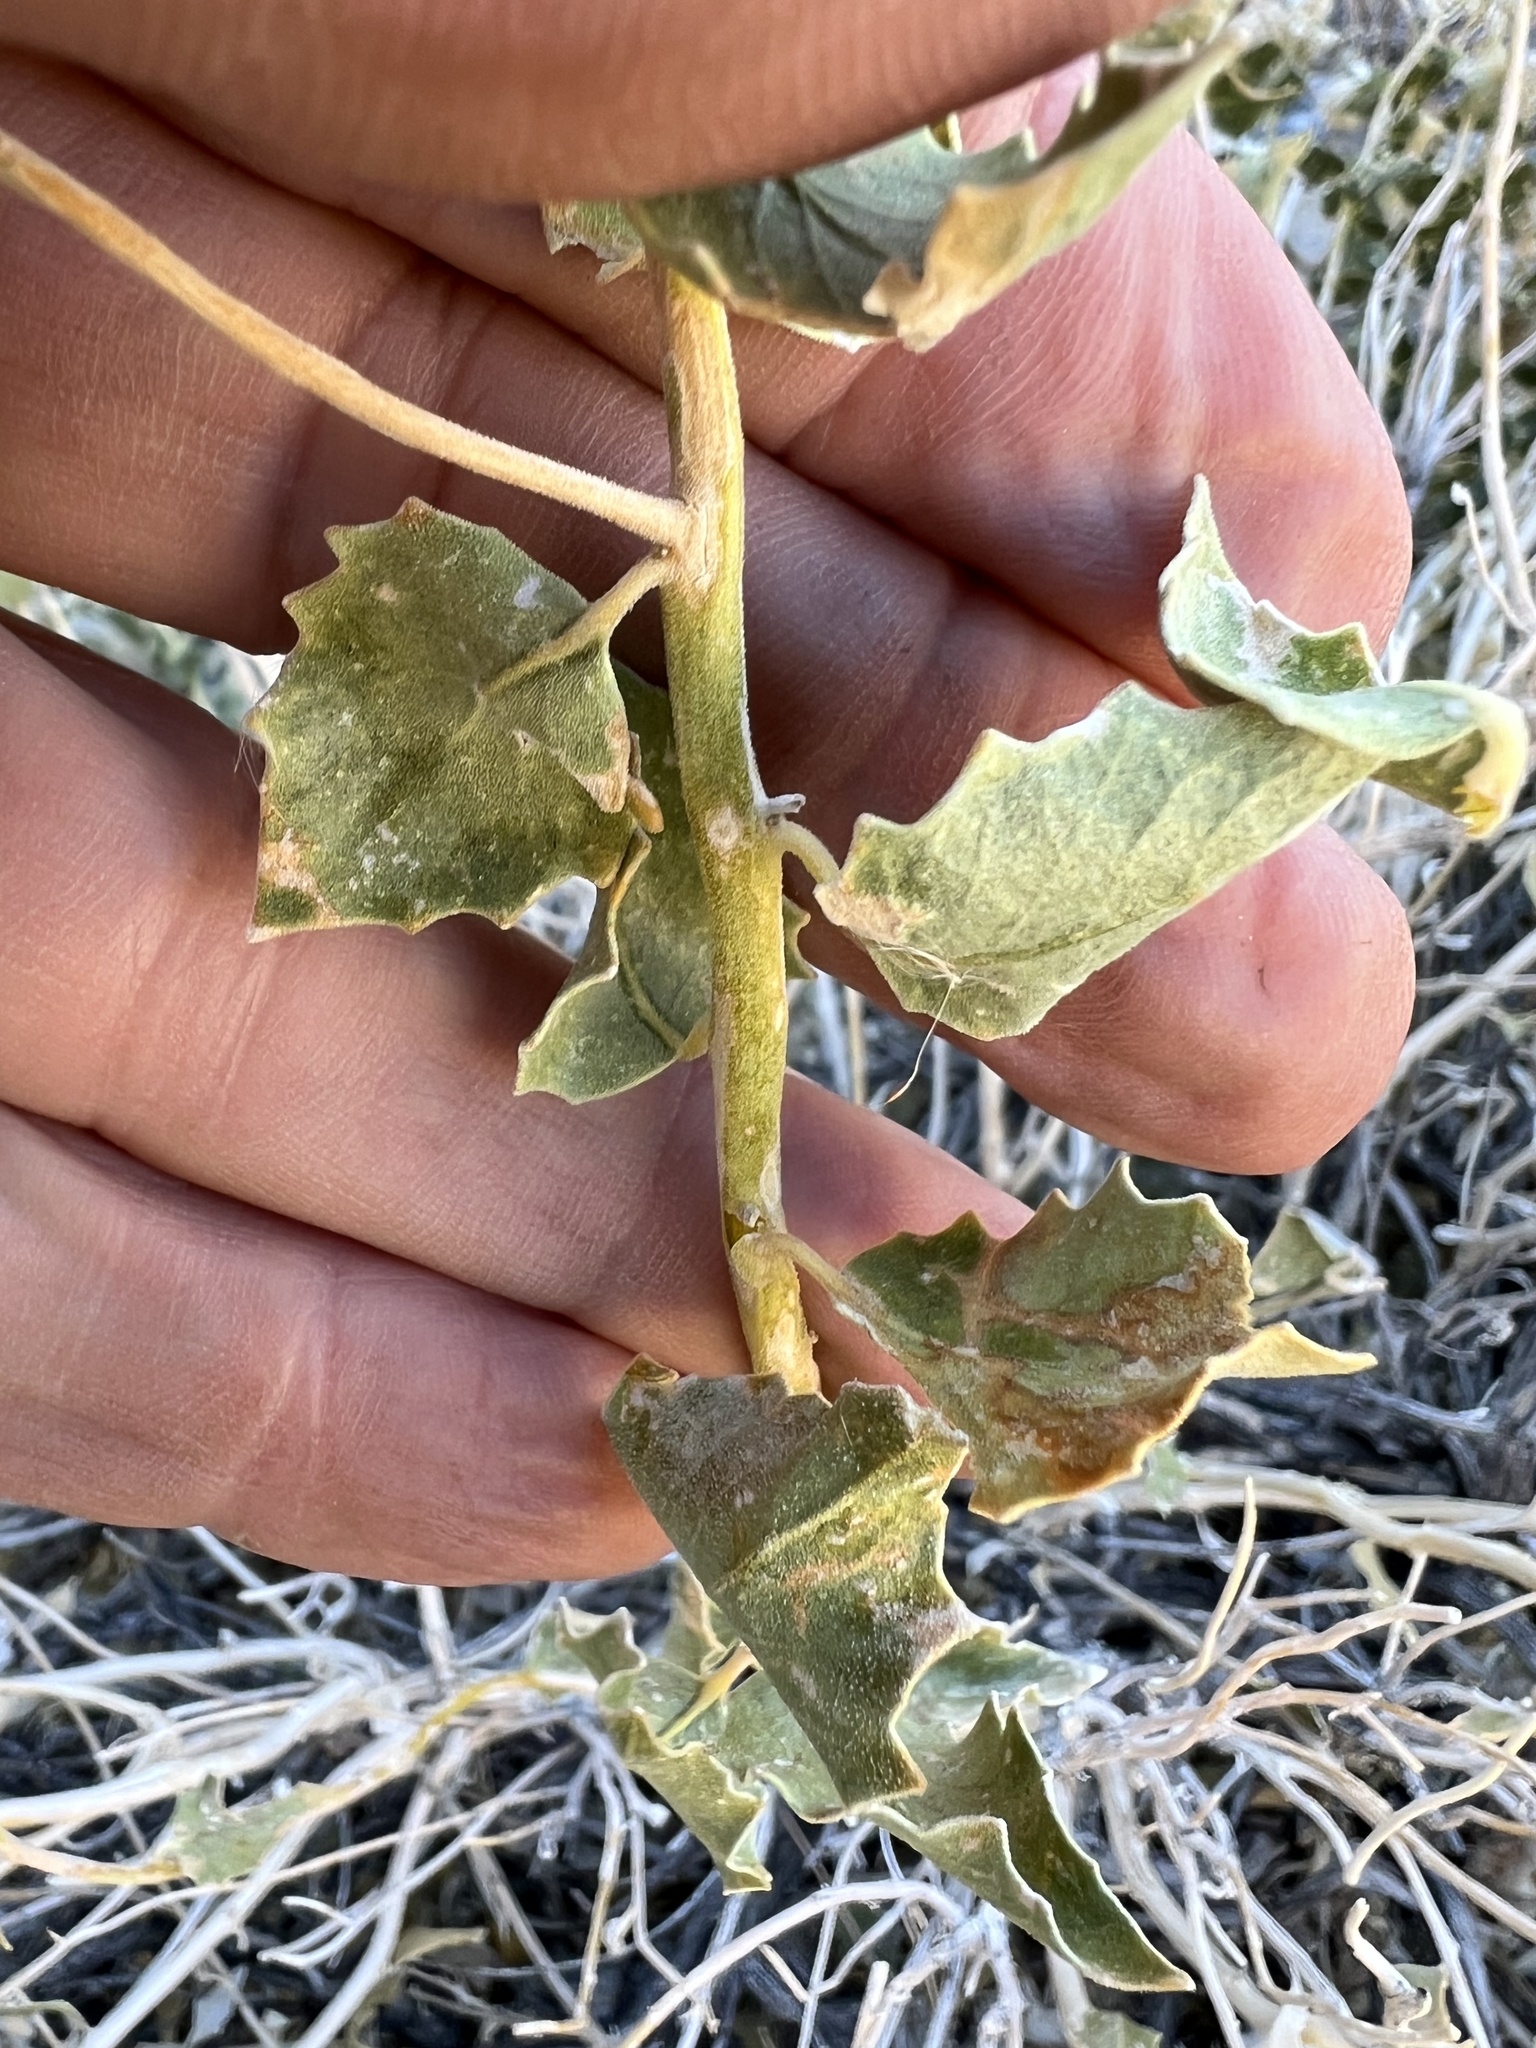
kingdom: Plantae
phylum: Tracheophyta
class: Magnoliopsida
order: Cornales
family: Loasaceae
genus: Petalonyx
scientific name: Petalonyx nitidus
